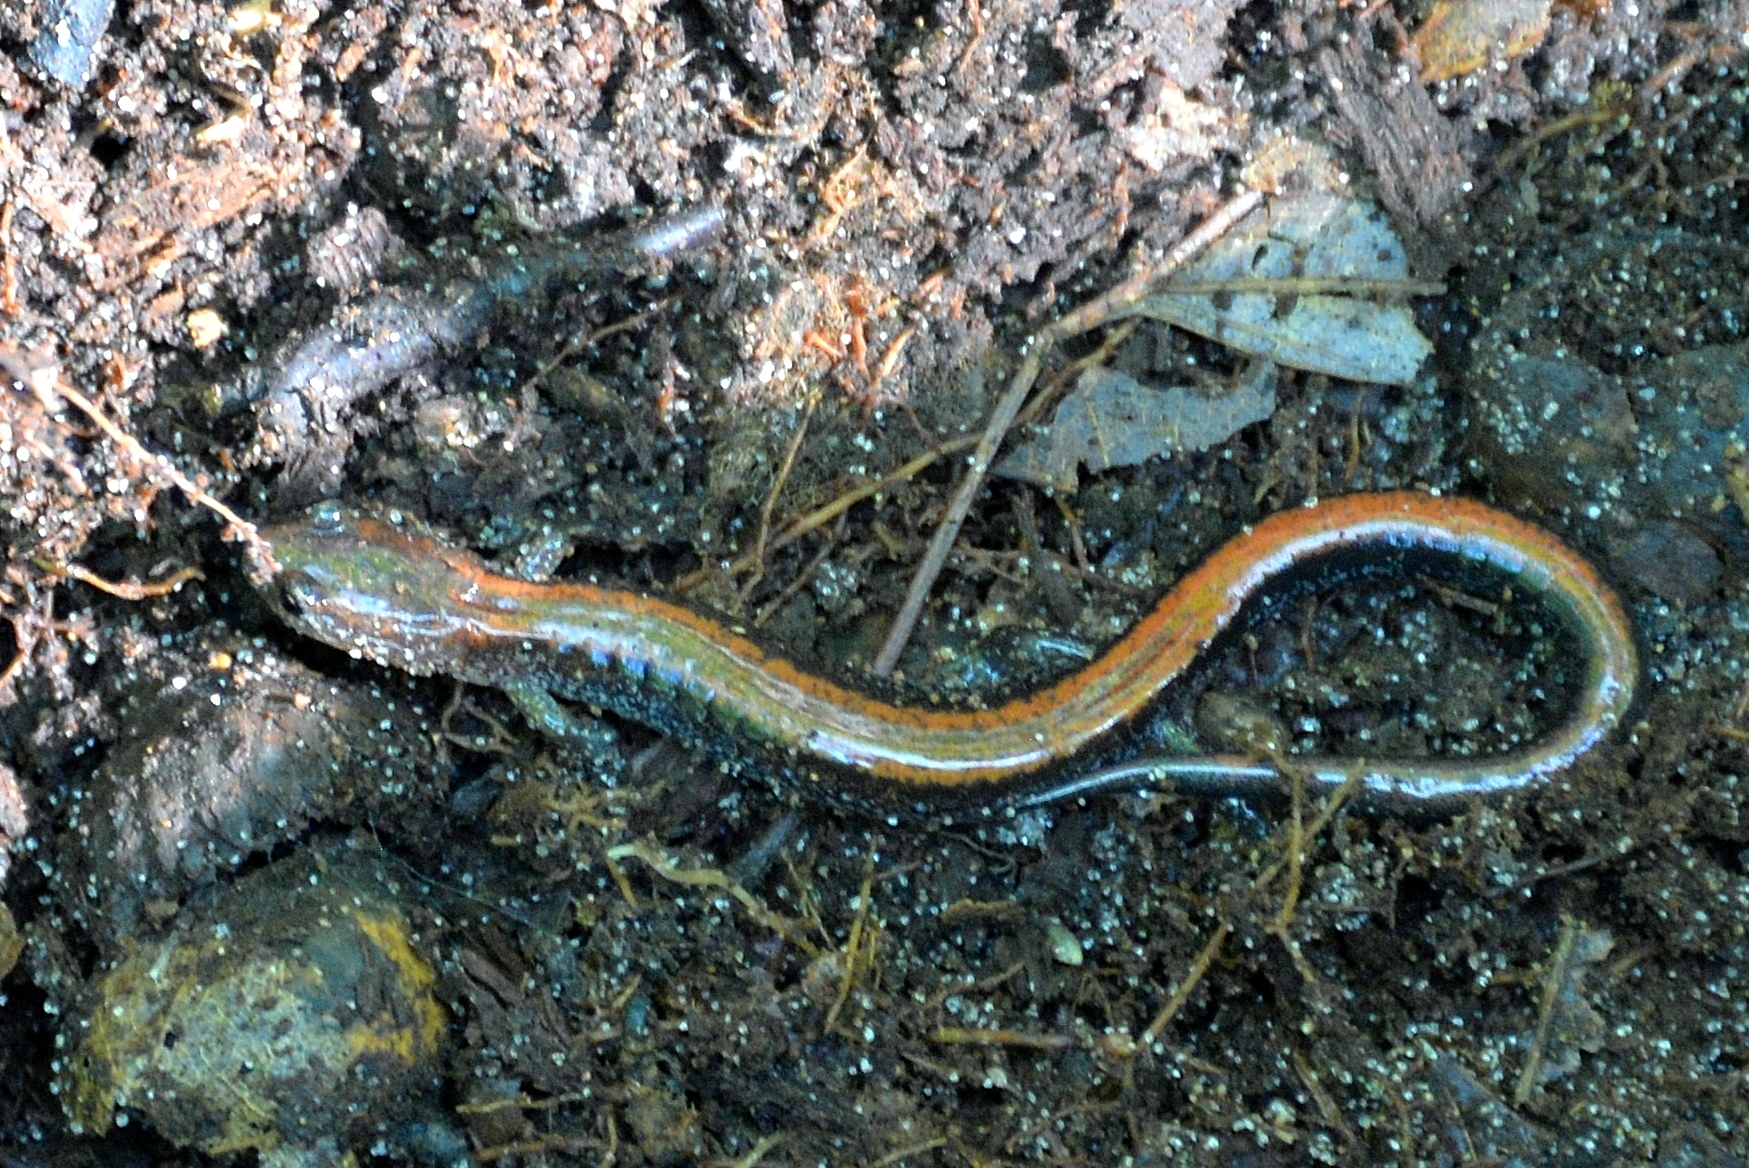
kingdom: Animalia
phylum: Chordata
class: Amphibia
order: Caudata
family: Plethodontidae
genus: Plethodon
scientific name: Plethodon cinereus
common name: Redback salamander
